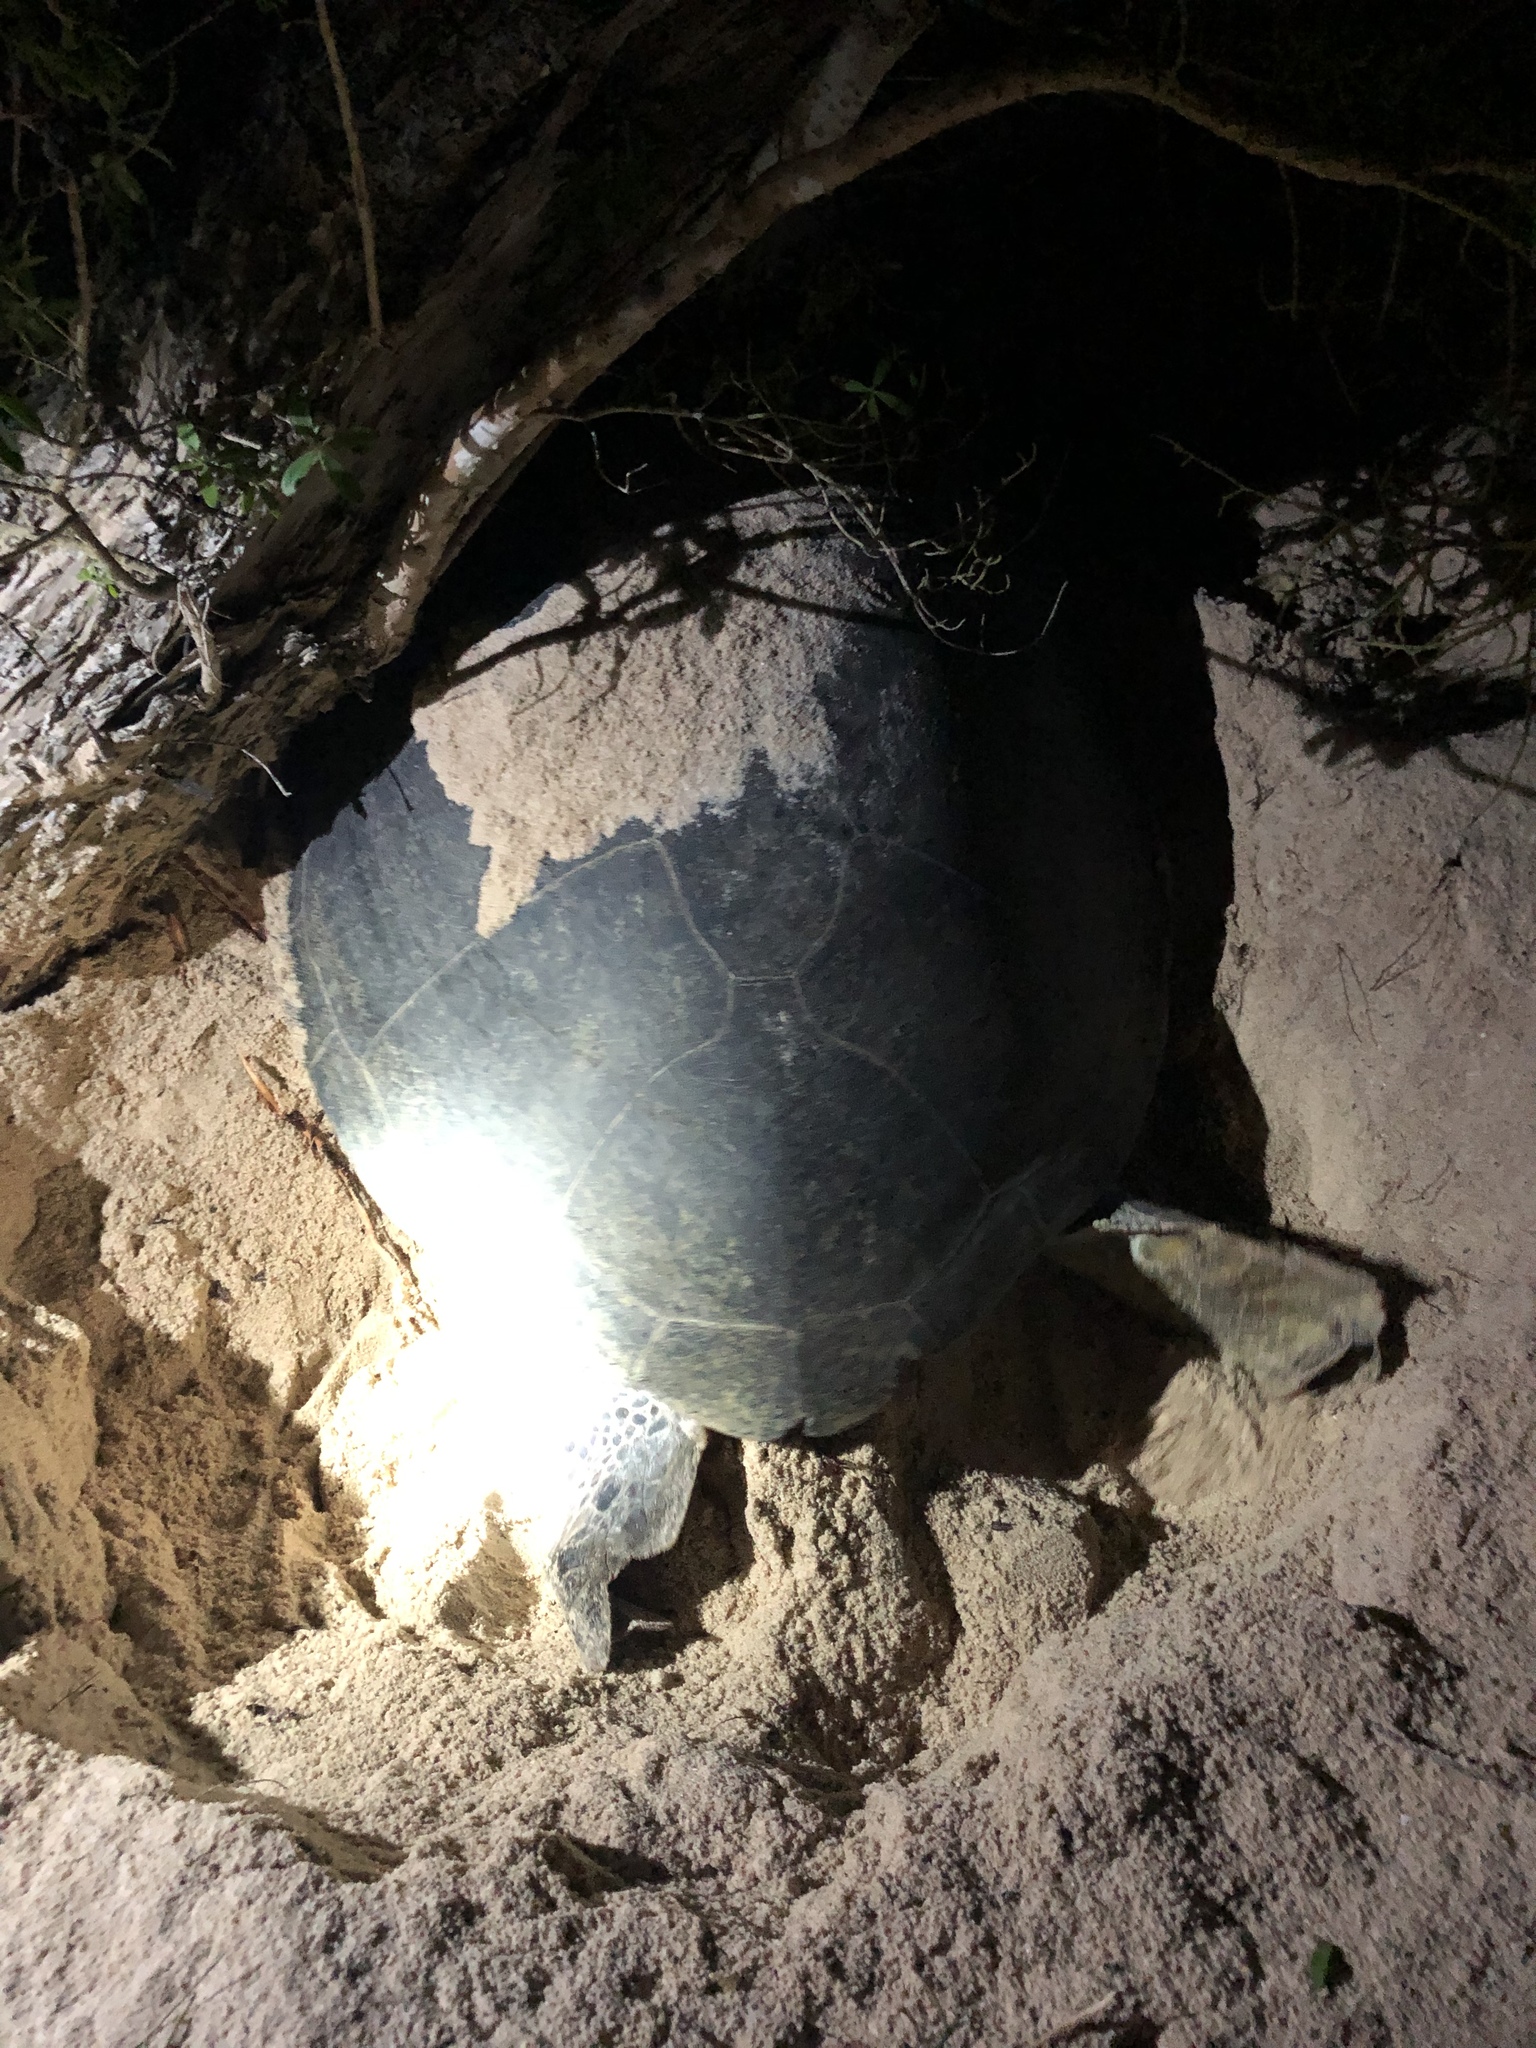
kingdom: Animalia
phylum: Chordata
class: Testudines
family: Cheloniidae
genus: Chelonia
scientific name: Chelonia mydas
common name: Green turtle
